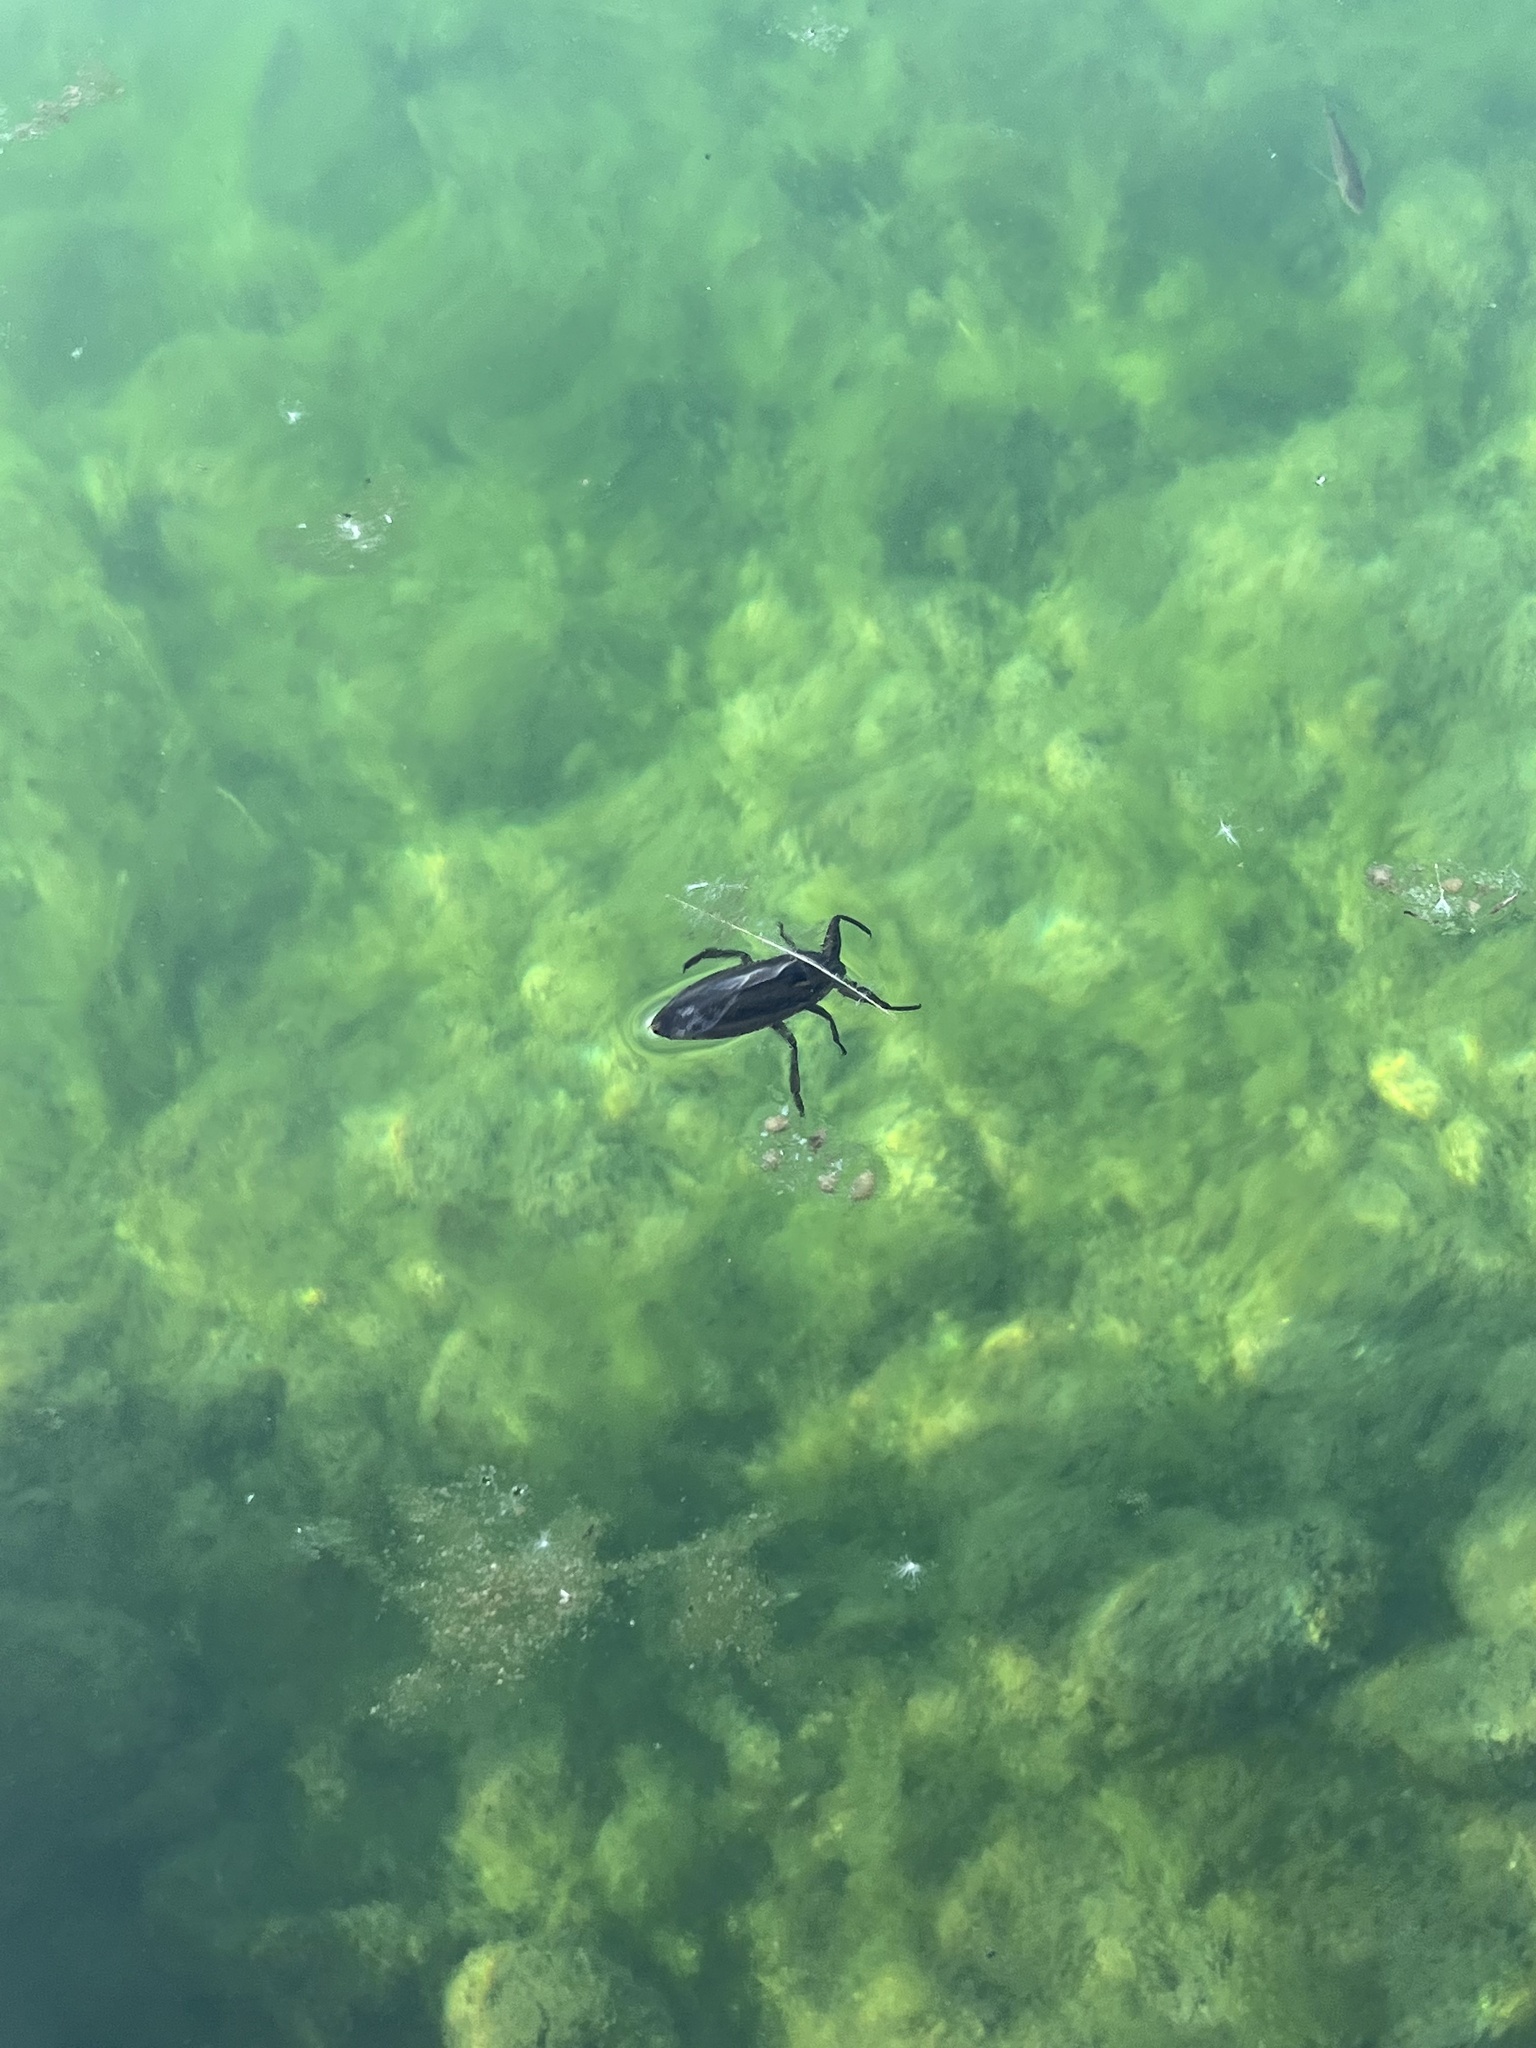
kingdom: Animalia
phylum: Arthropoda
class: Insecta
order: Hemiptera
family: Belostomatidae
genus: Lethocerus
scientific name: Lethocerus
